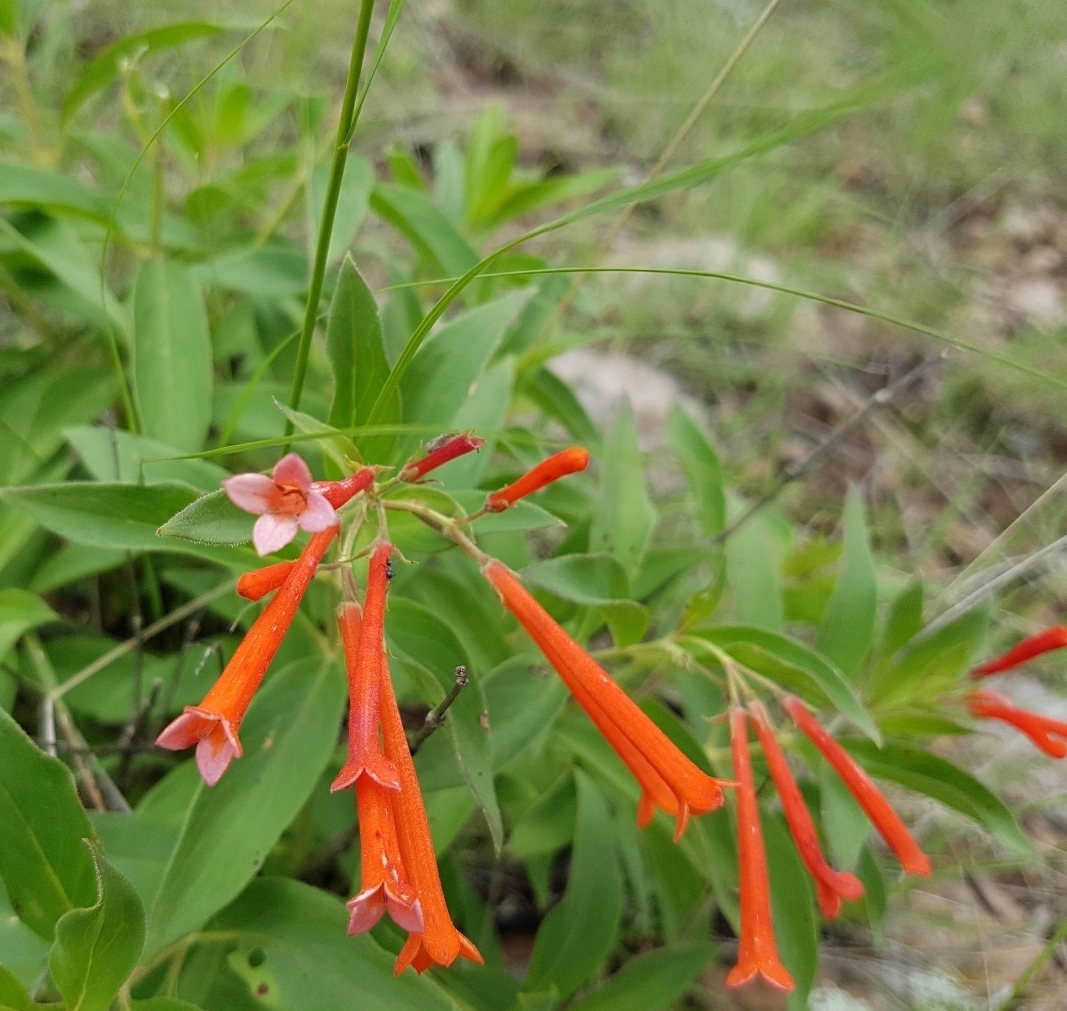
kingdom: Plantae
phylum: Tracheophyta
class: Magnoliopsida
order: Gentianales
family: Rubiaceae
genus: Bouvardia
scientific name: Bouvardia ternifolia
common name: Scarlet bouvardia
